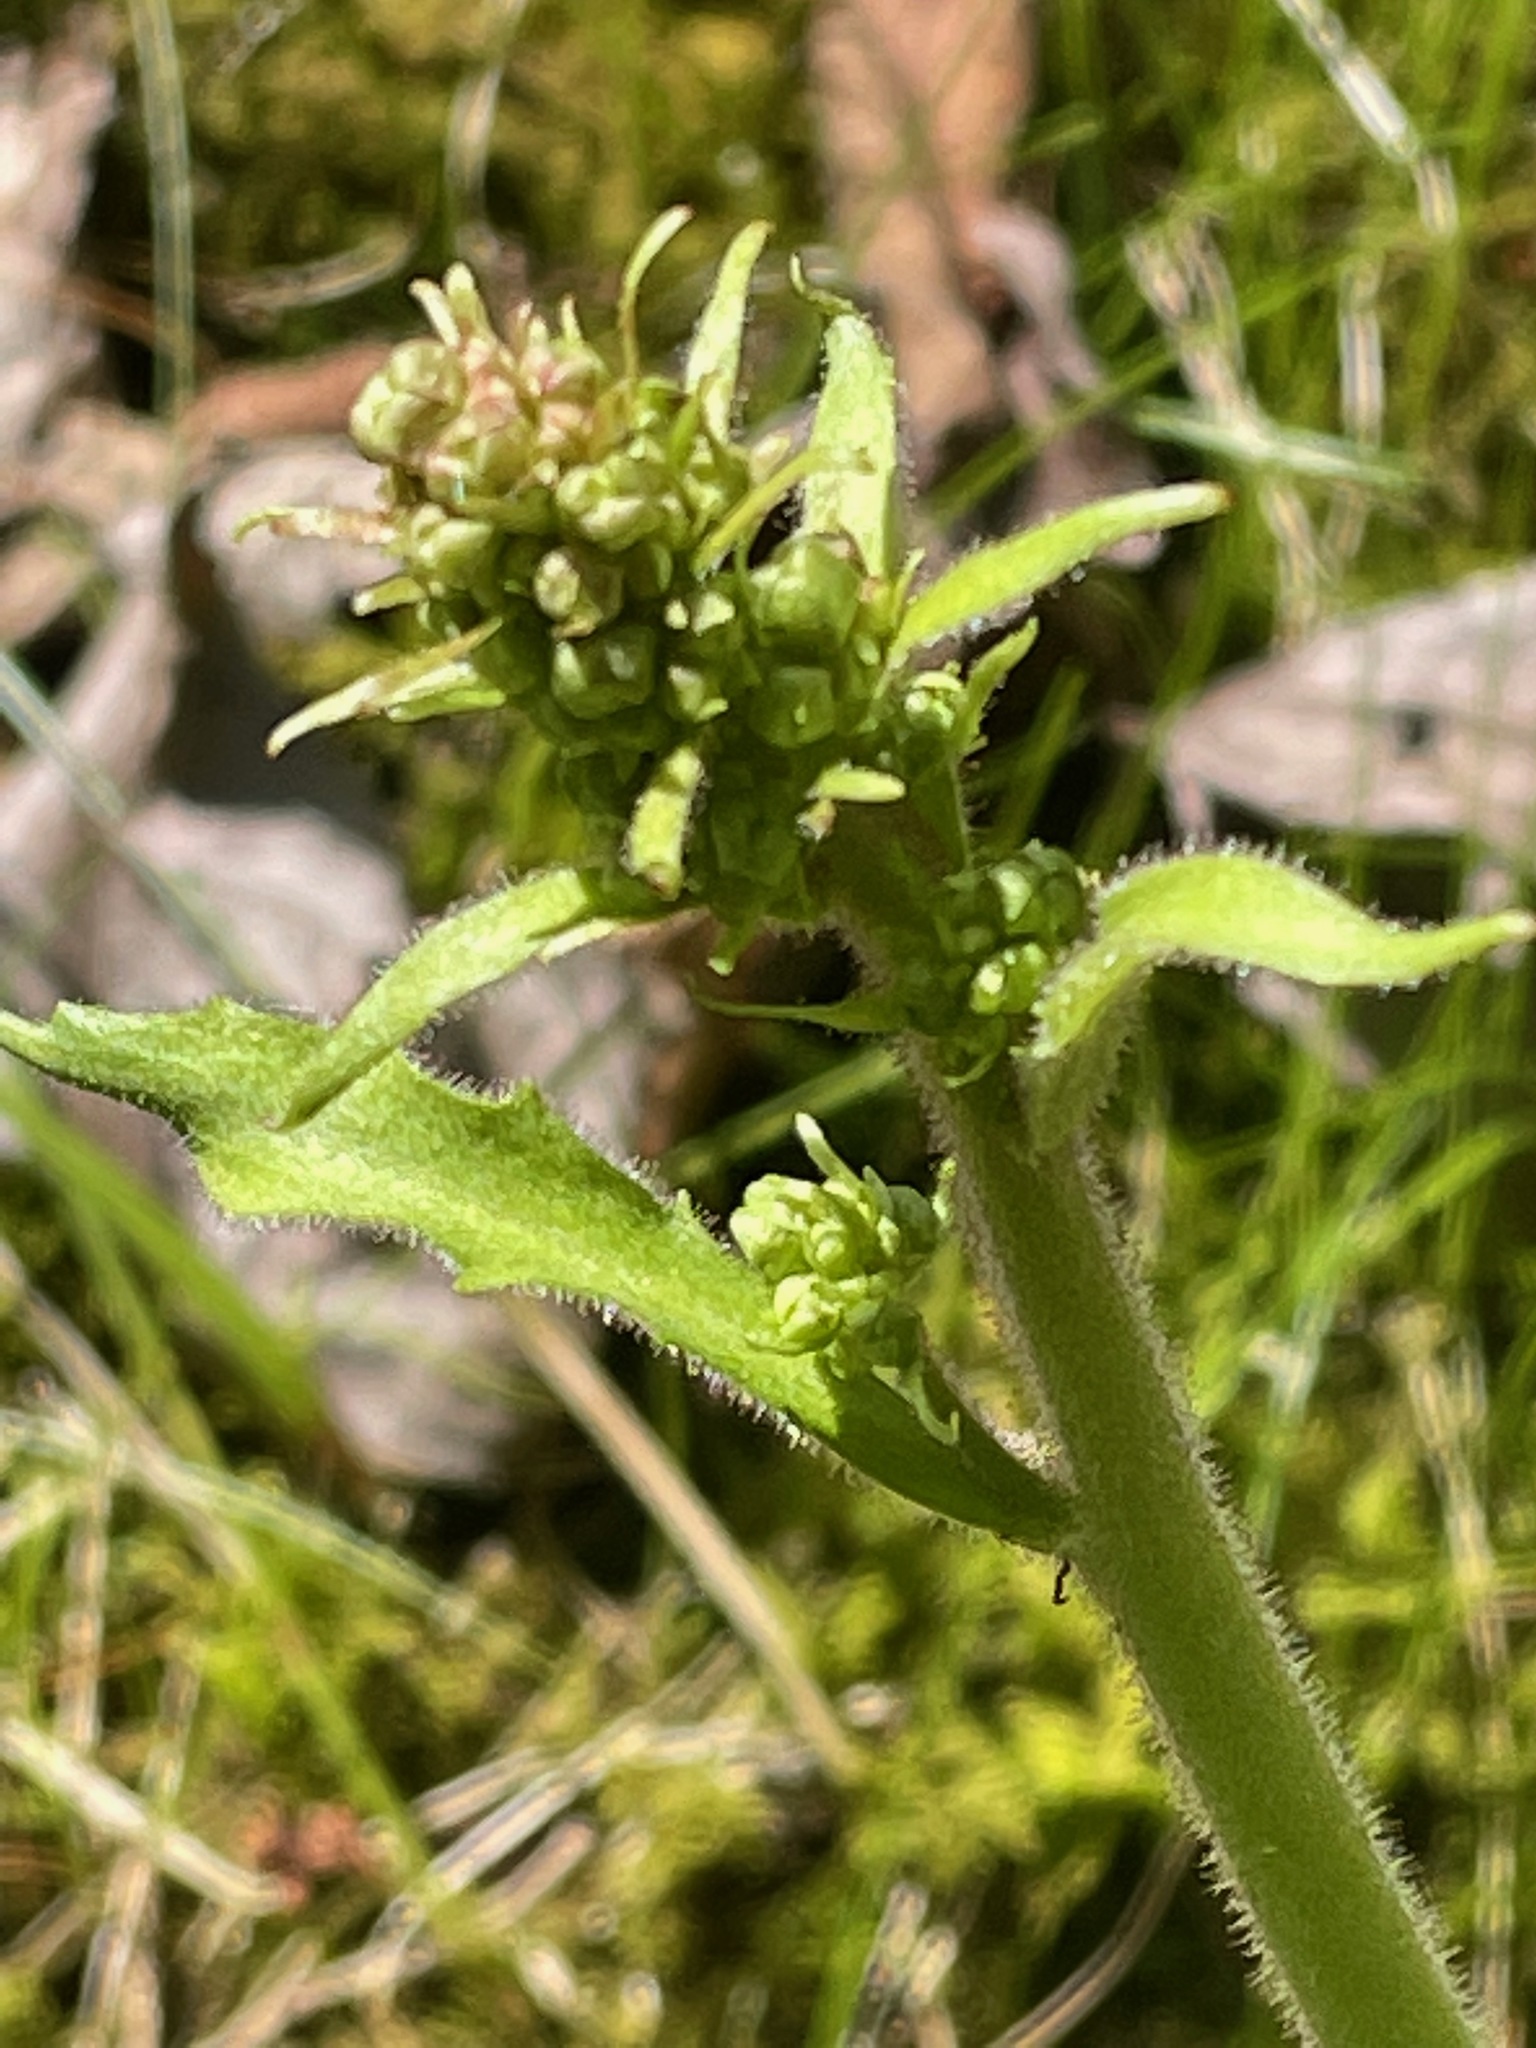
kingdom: Plantae
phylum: Tracheophyta
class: Magnoliopsida
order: Saxifragales
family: Saxifragaceae
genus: Micranthes
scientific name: Micranthes pensylvanica
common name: Marsh saxifrage
